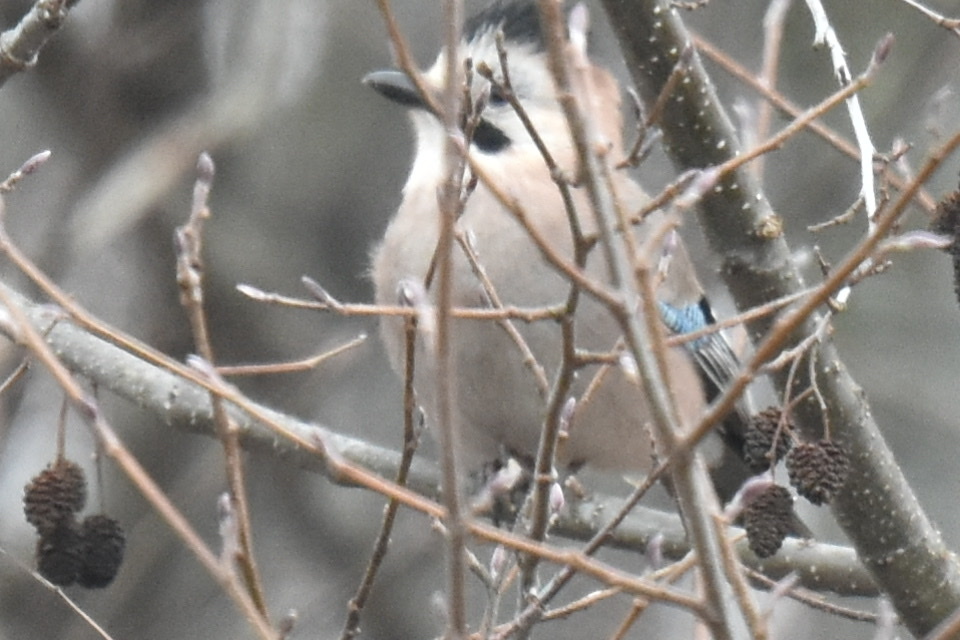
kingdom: Animalia
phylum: Chordata
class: Aves
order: Passeriformes
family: Corvidae
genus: Garrulus
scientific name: Garrulus glandarius
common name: Eurasian jay
